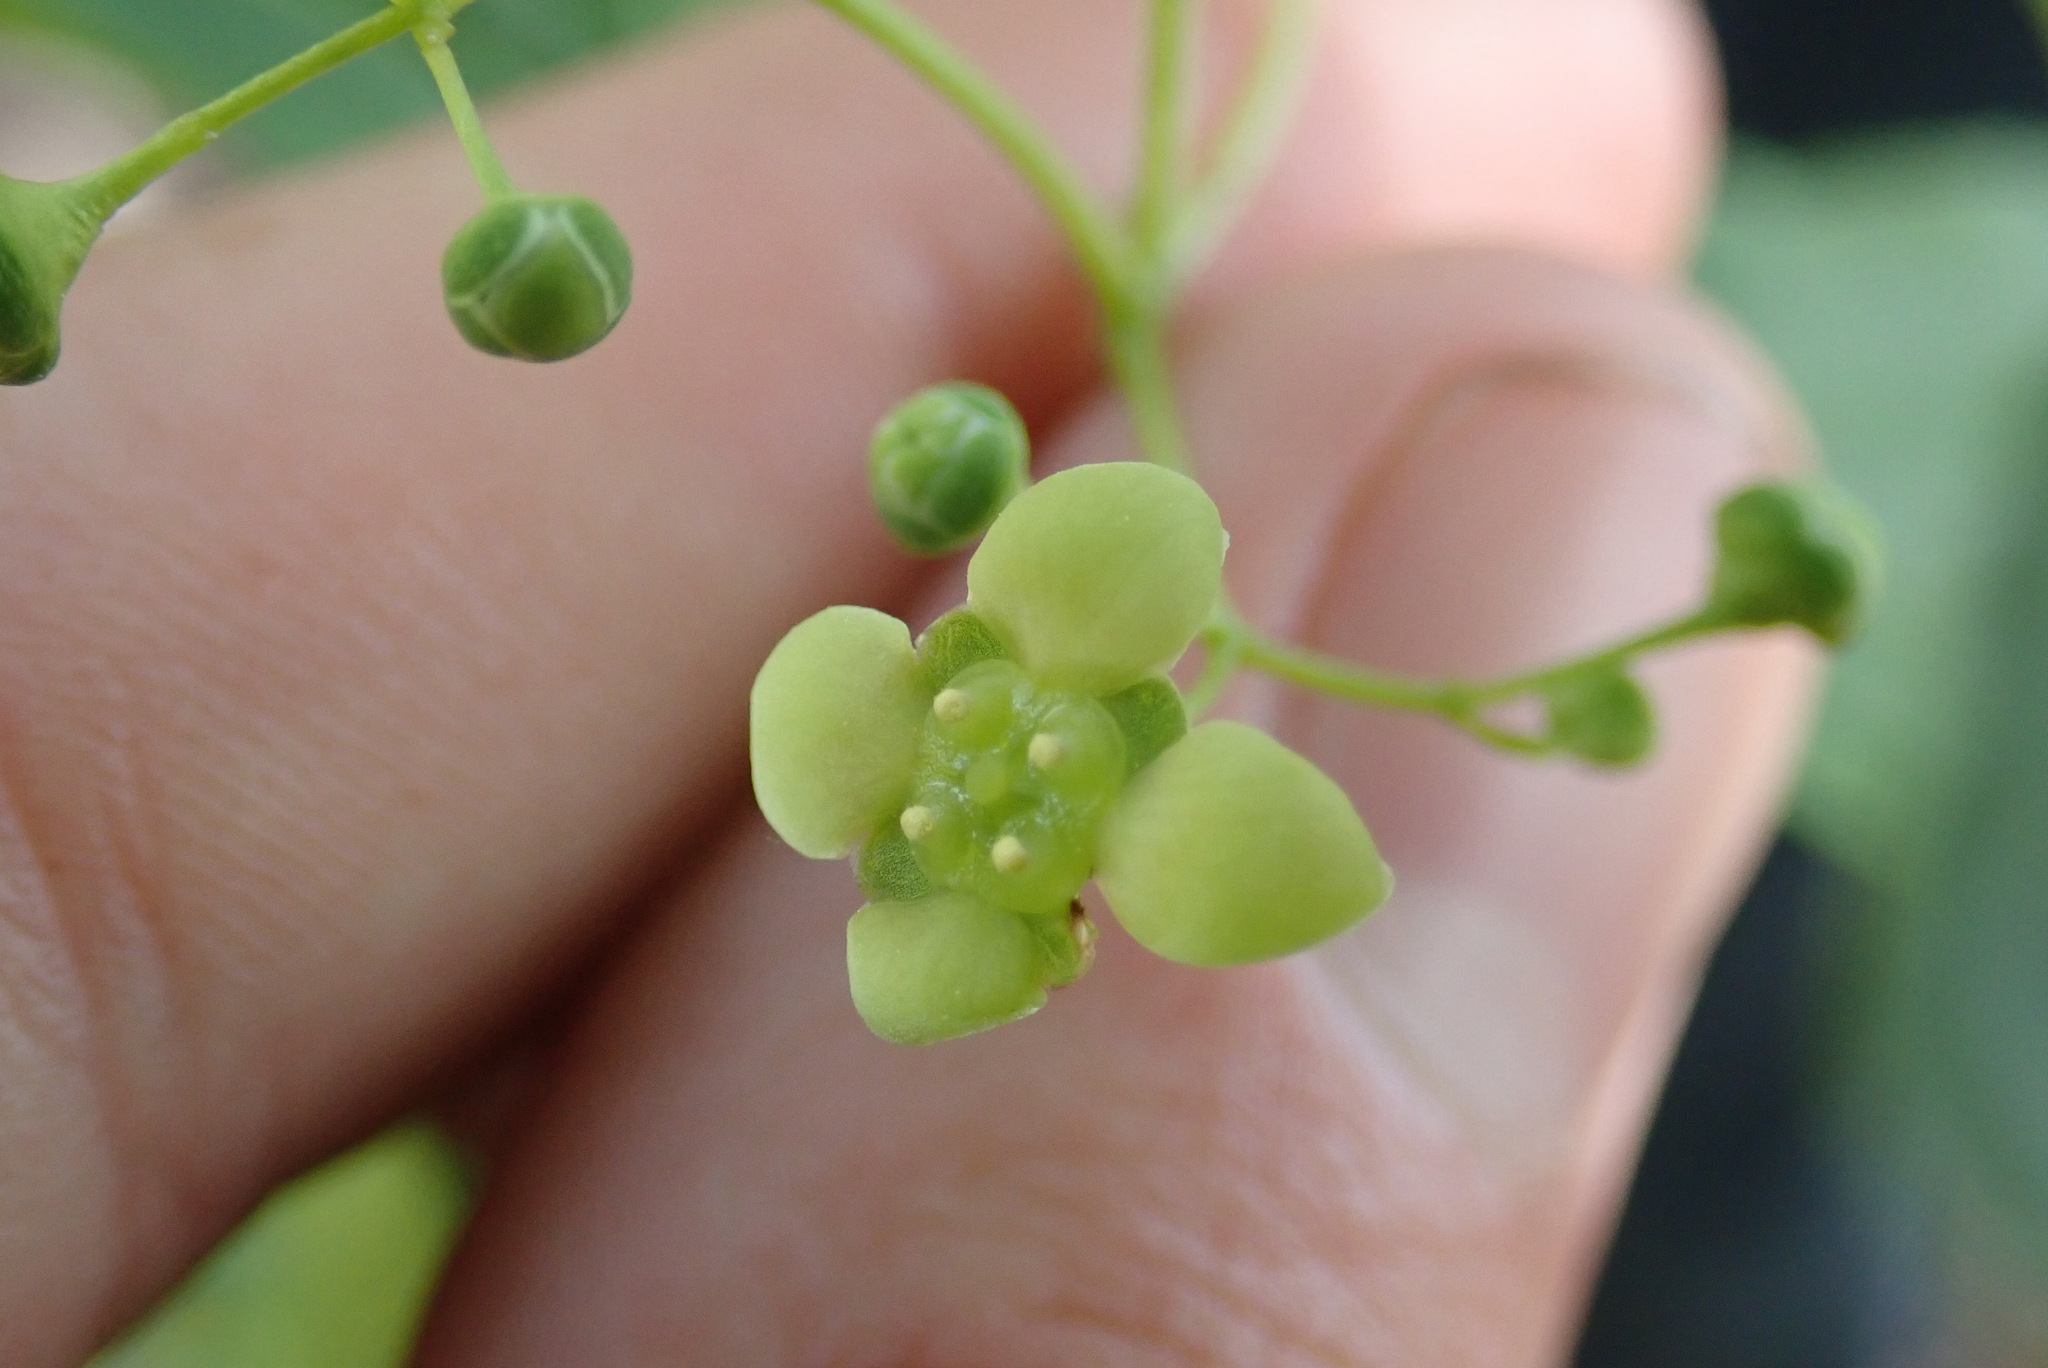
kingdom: Plantae
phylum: Tracheophyta
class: Magnoliopsida
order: Celastrales
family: Celastraceae
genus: Euonymus
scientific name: Euonymus latifolius
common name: Large-leaved spindle
